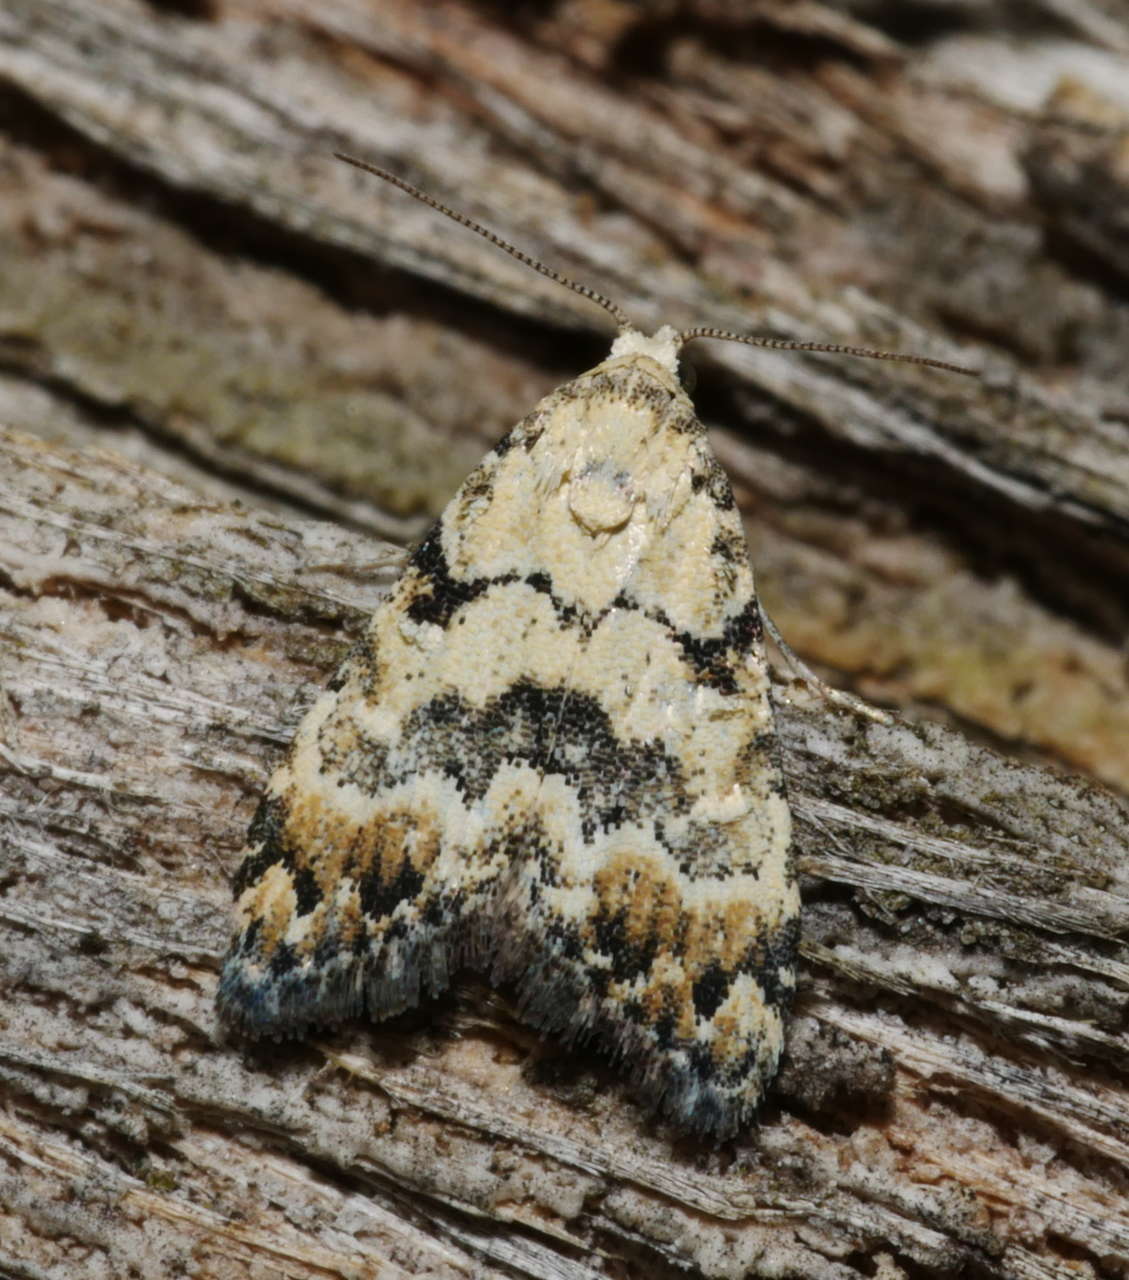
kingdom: Animalia
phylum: Arthropoda
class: Insecta
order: Lepidoptera
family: Nolidae
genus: Nola
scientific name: Nola semograpta
